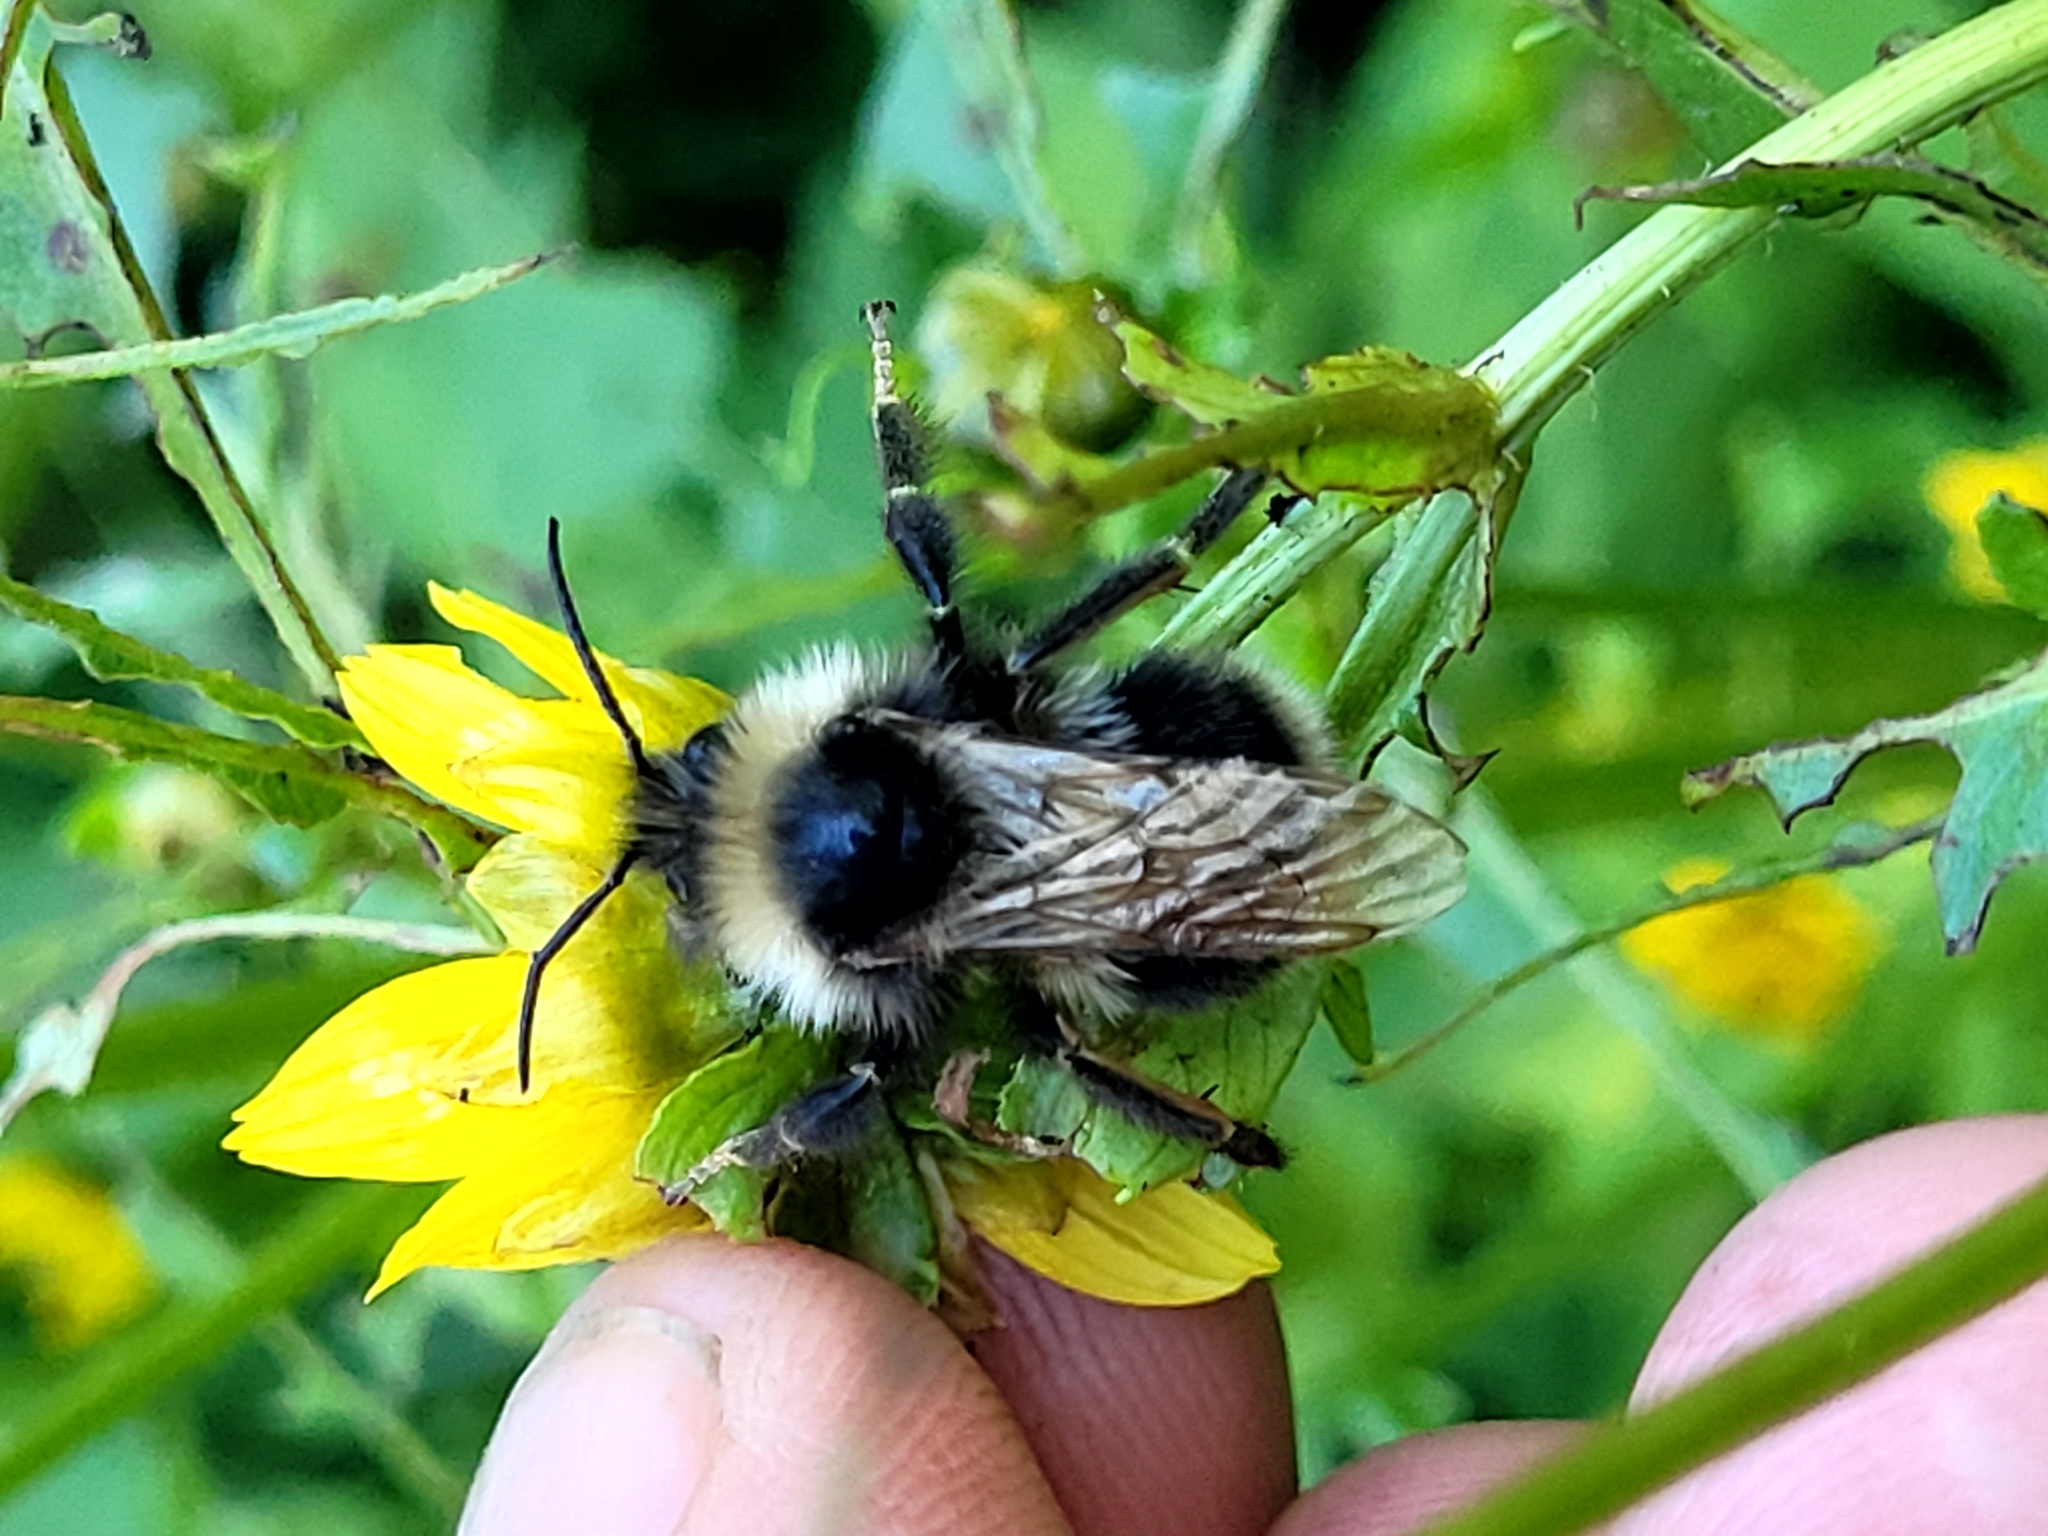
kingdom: Animalia
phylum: Arthropoda
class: Insecta
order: Hymenoptera
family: Apidae
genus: Bombus
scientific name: Bombus ashtoni
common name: Ashton's cuckoo bumble bee
